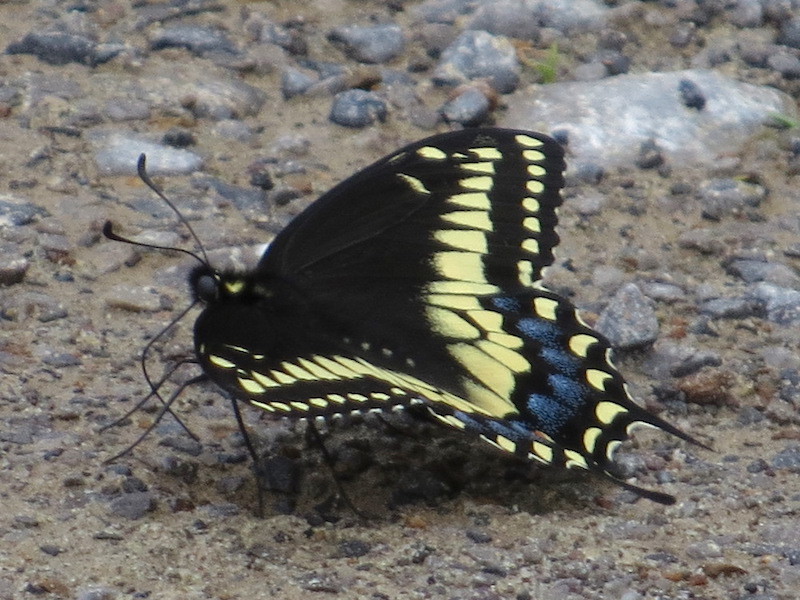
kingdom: Animalia
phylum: Arthropoda
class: Insecta
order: Lepidoptera
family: Papilionidae
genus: Papilio
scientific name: Papilio polyxenes
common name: Black swallowtail
